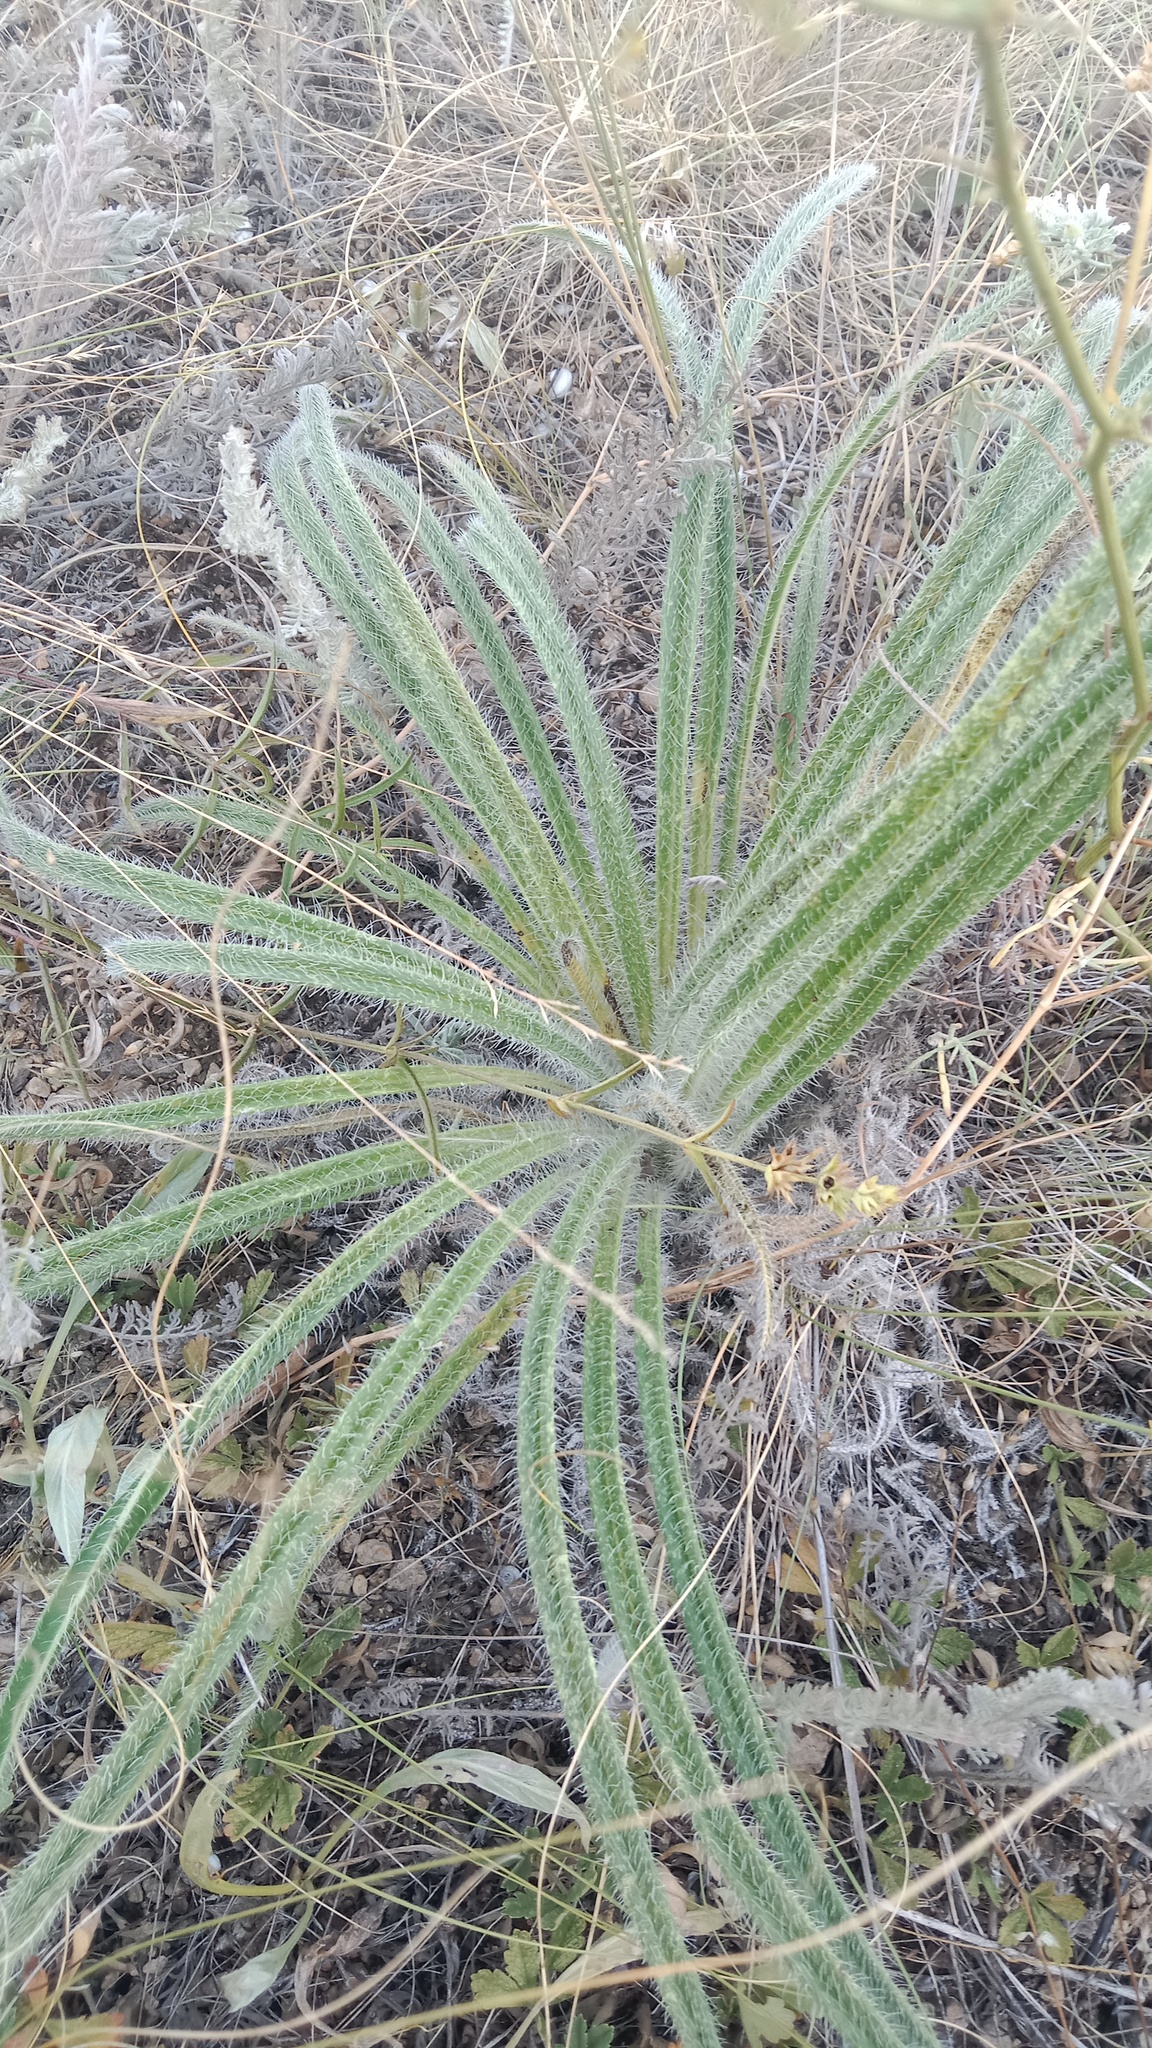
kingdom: Plantae
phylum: Tracheophyta
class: Magnoliopsida
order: Boraginales
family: Boraginaceae
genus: Onosma
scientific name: Onosma visianii
